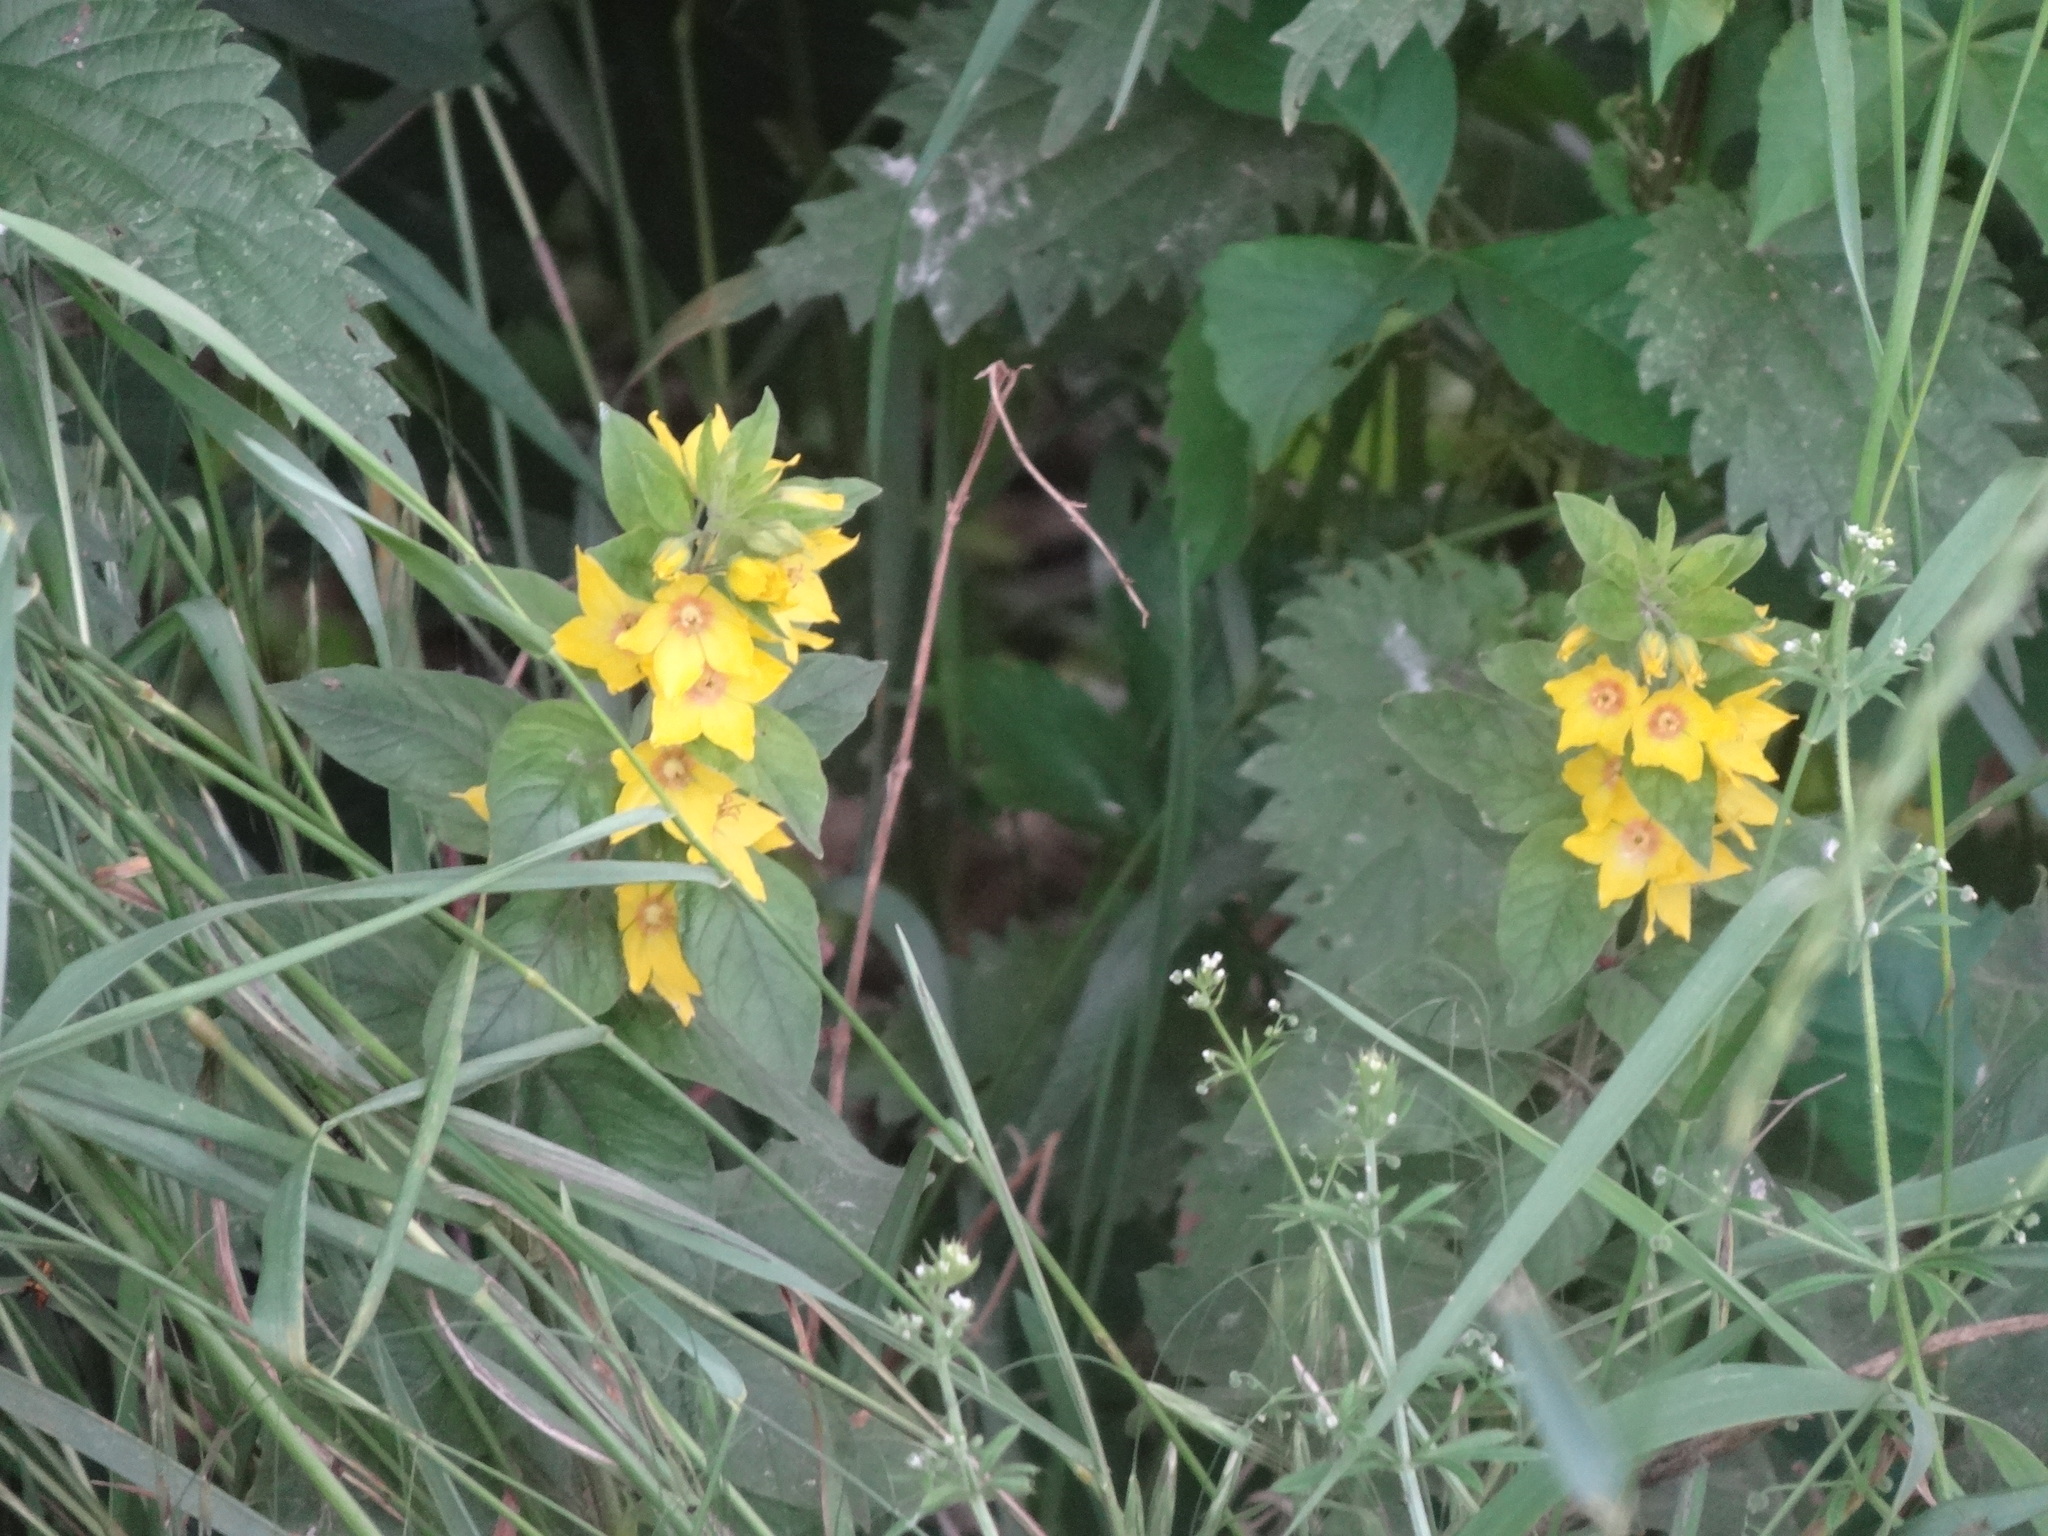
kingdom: Plantae
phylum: Tracheophyta
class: Magnoliopsida
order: Ericales
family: Primulaceae
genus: Lysimachia
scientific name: Lysimachia punctata
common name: Dotted loosestrife
